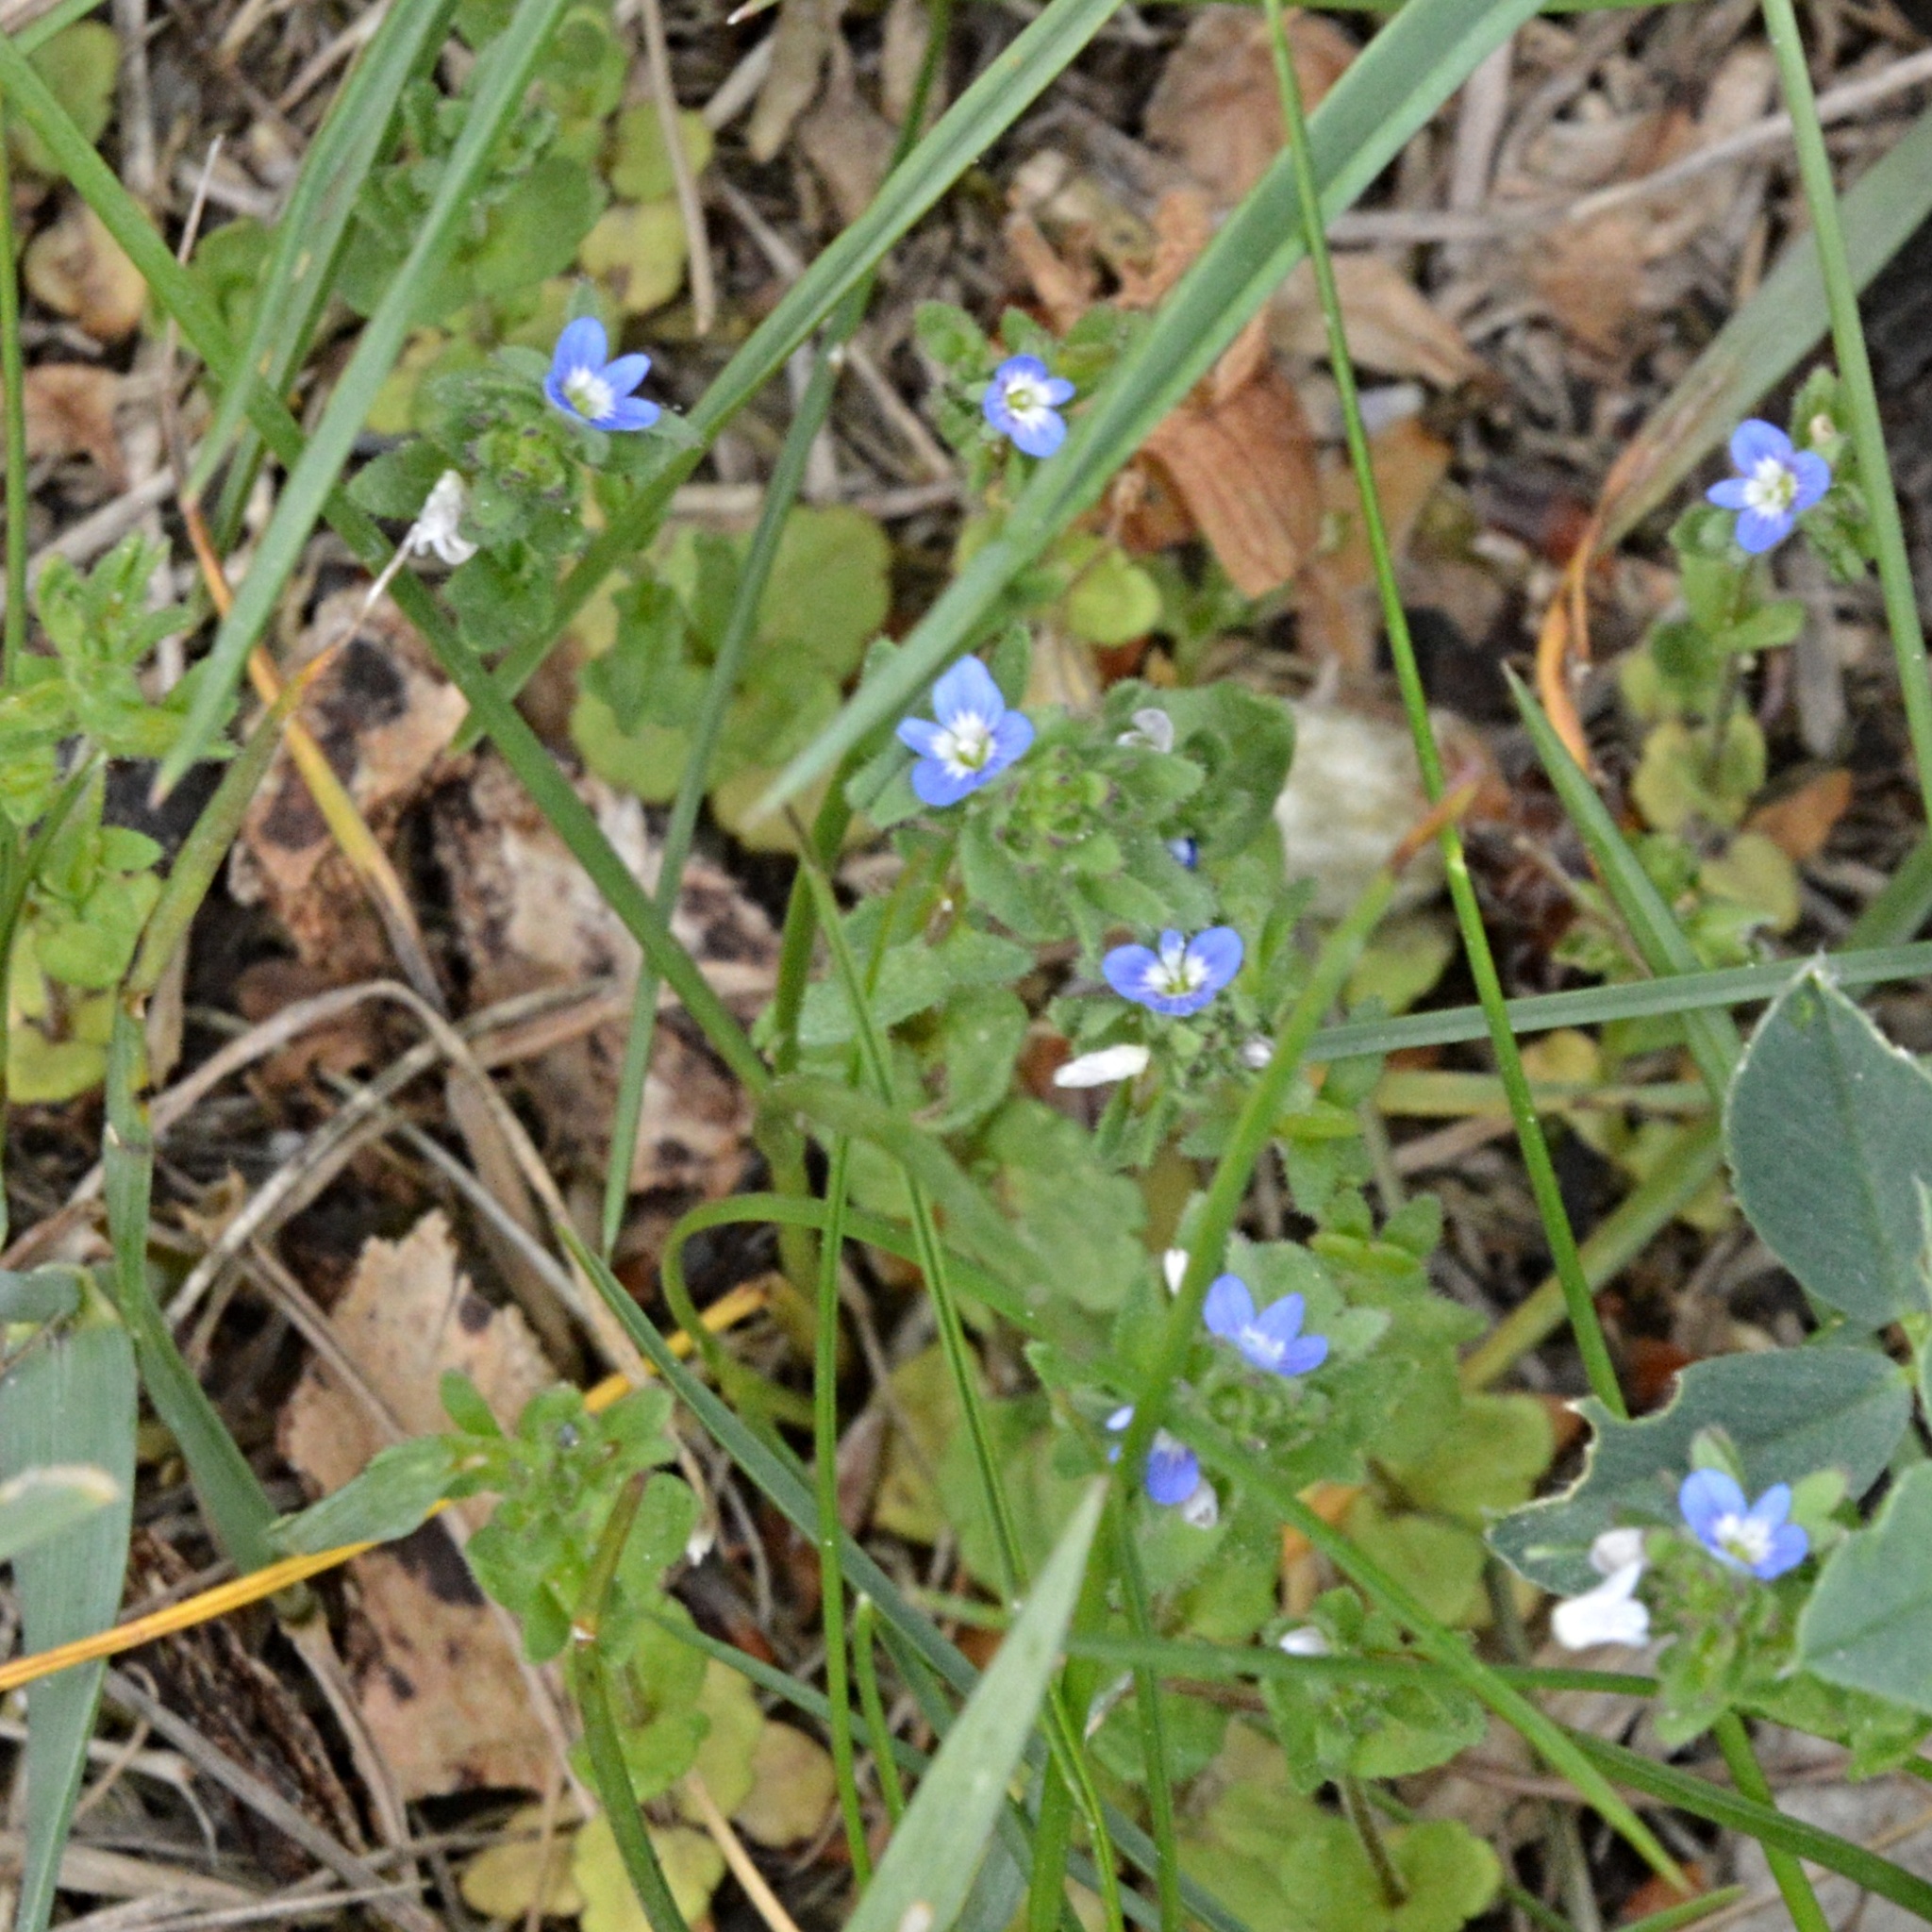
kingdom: Plantae
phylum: Tracheophyta
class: Magnoliopsida
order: Lamiales
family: Plantaginaceae
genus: Veronica
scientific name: Veronica arvensis
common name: Corn speedwell
